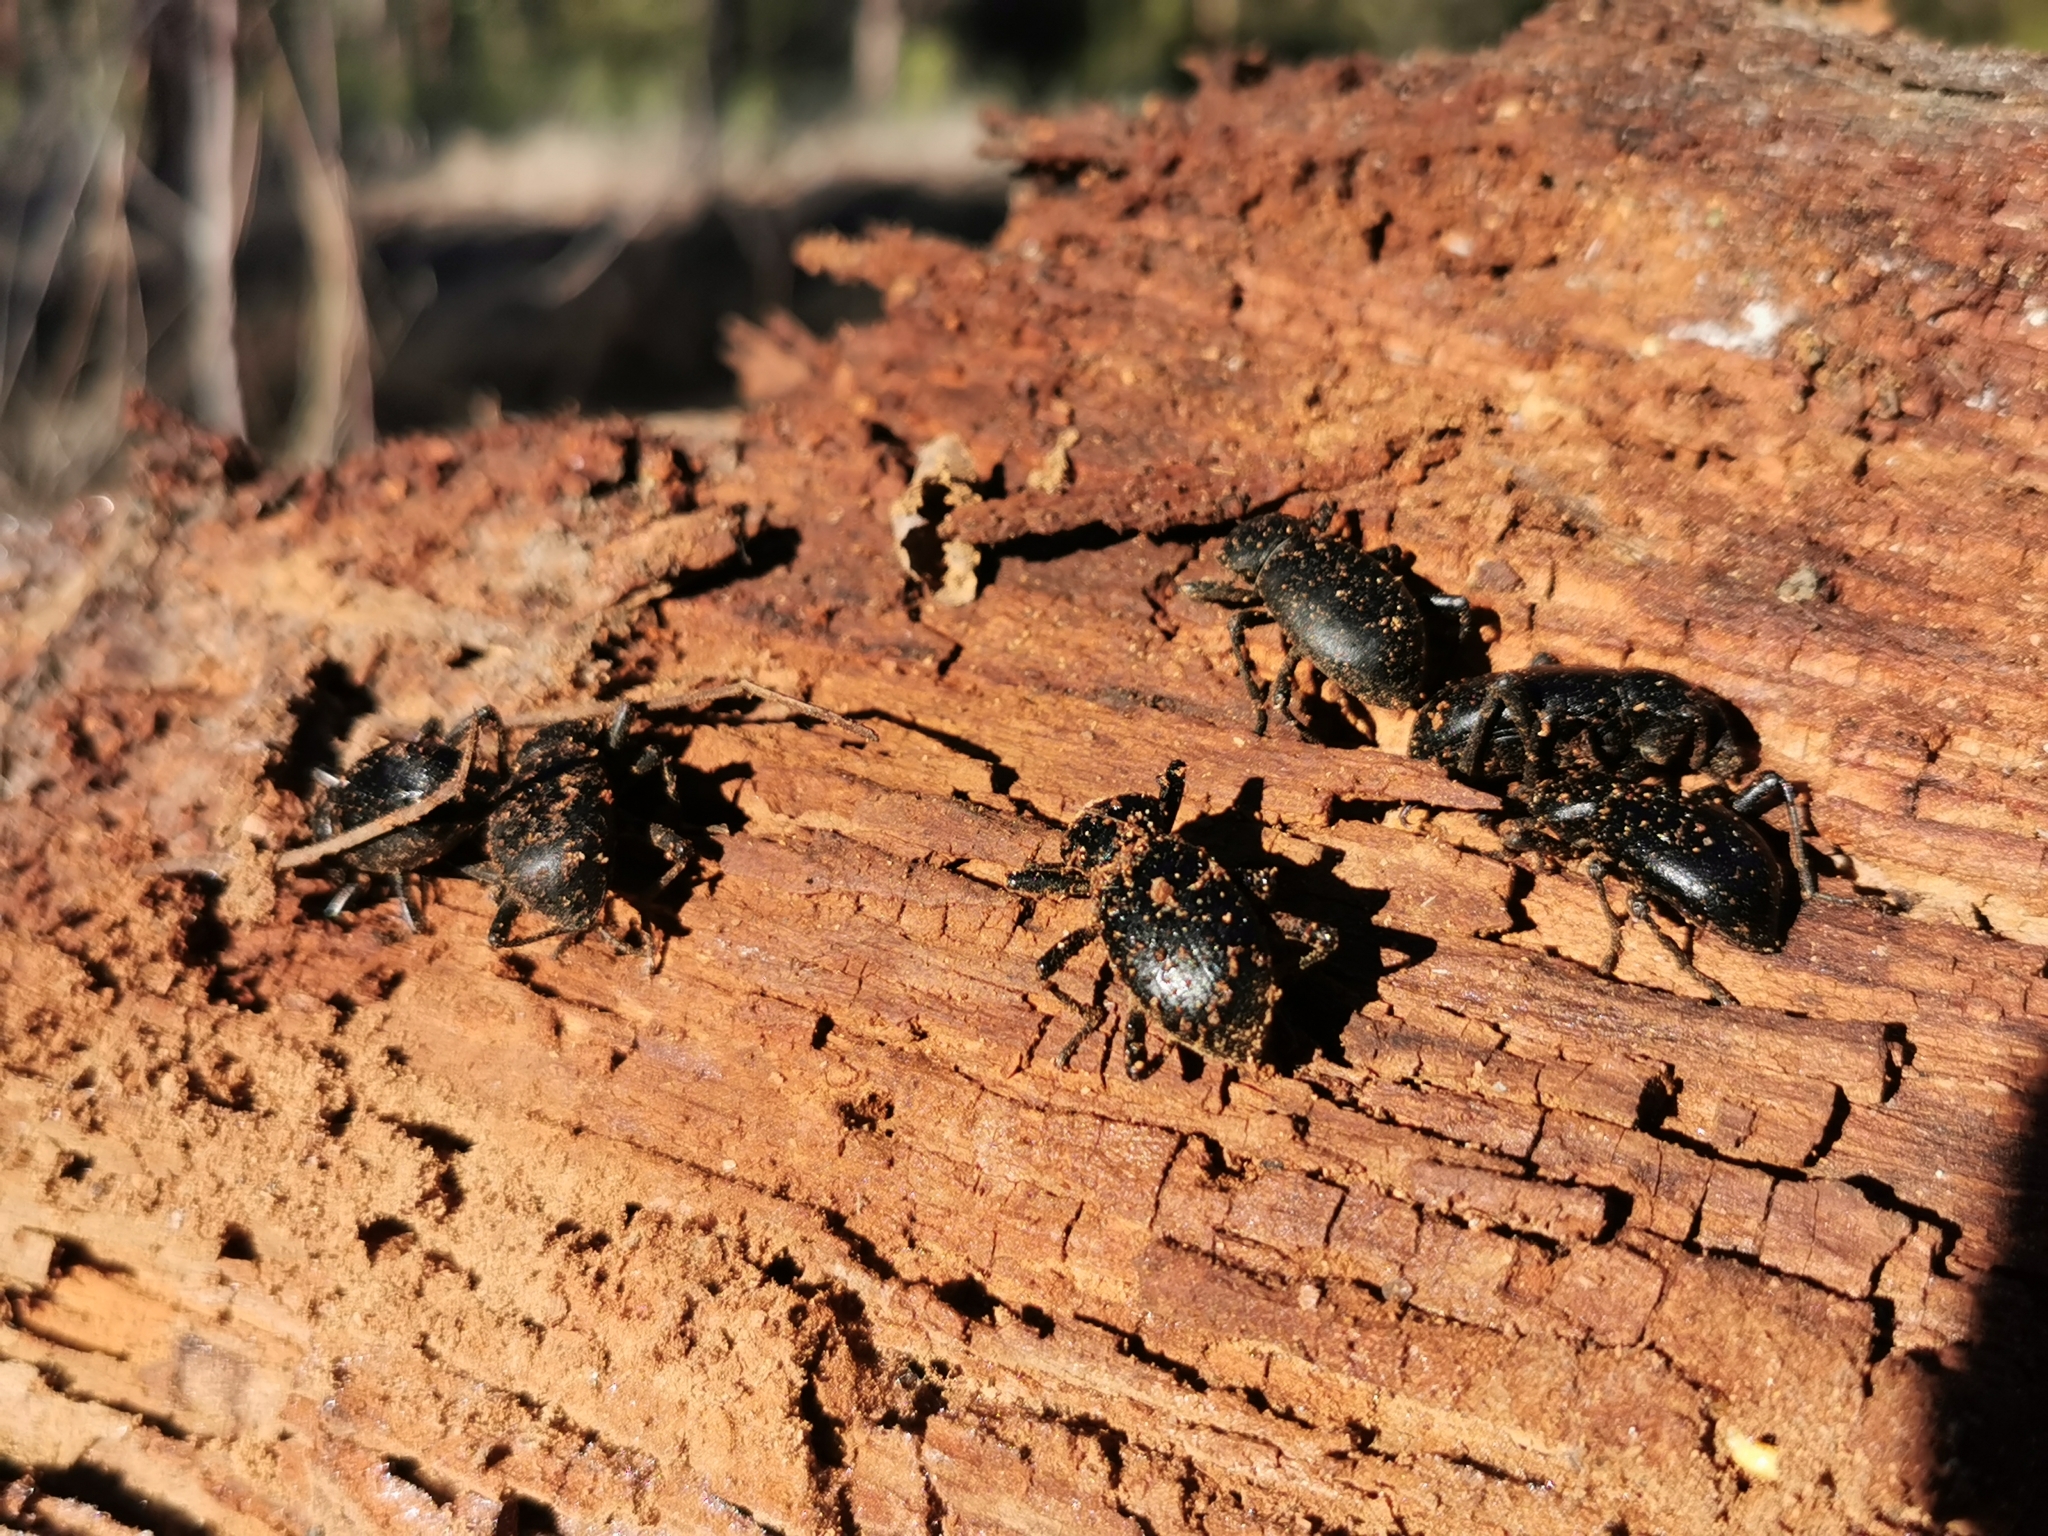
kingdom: Animalia
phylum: Arthropoda
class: Insecta
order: Coleoptera
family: Tenebrionidae
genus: Coelocnemis
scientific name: Coelocnemis dilaticollis
